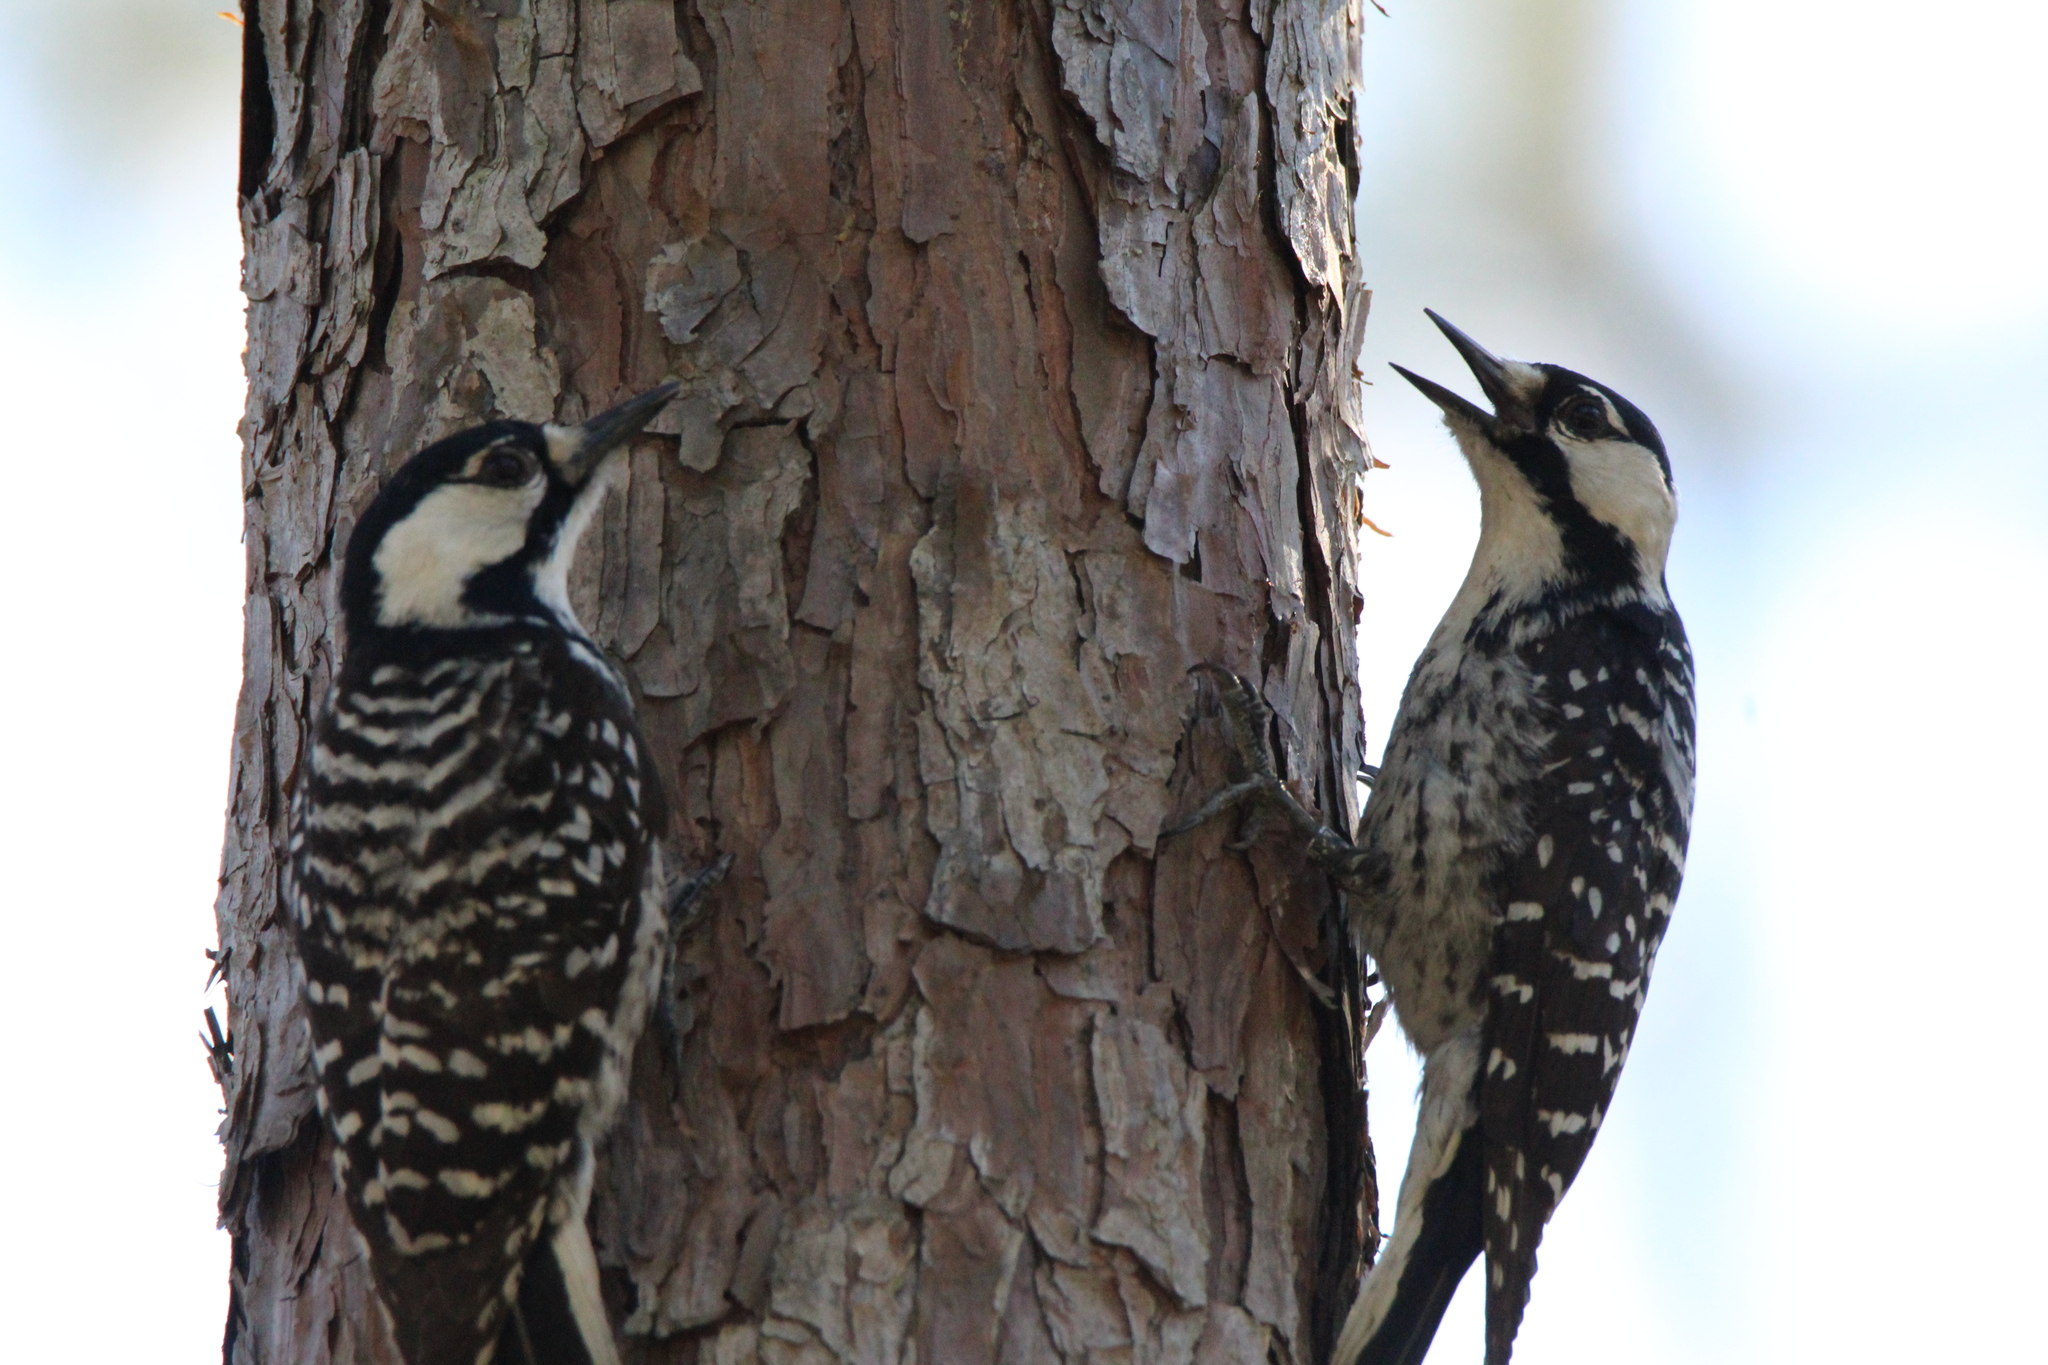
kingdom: Animalia
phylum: Chordata
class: Aves
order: Piciformes
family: Picidae
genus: Leuconotopicus
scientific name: Leuconotopicus borealis
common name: Red-cockaded woodpecker
